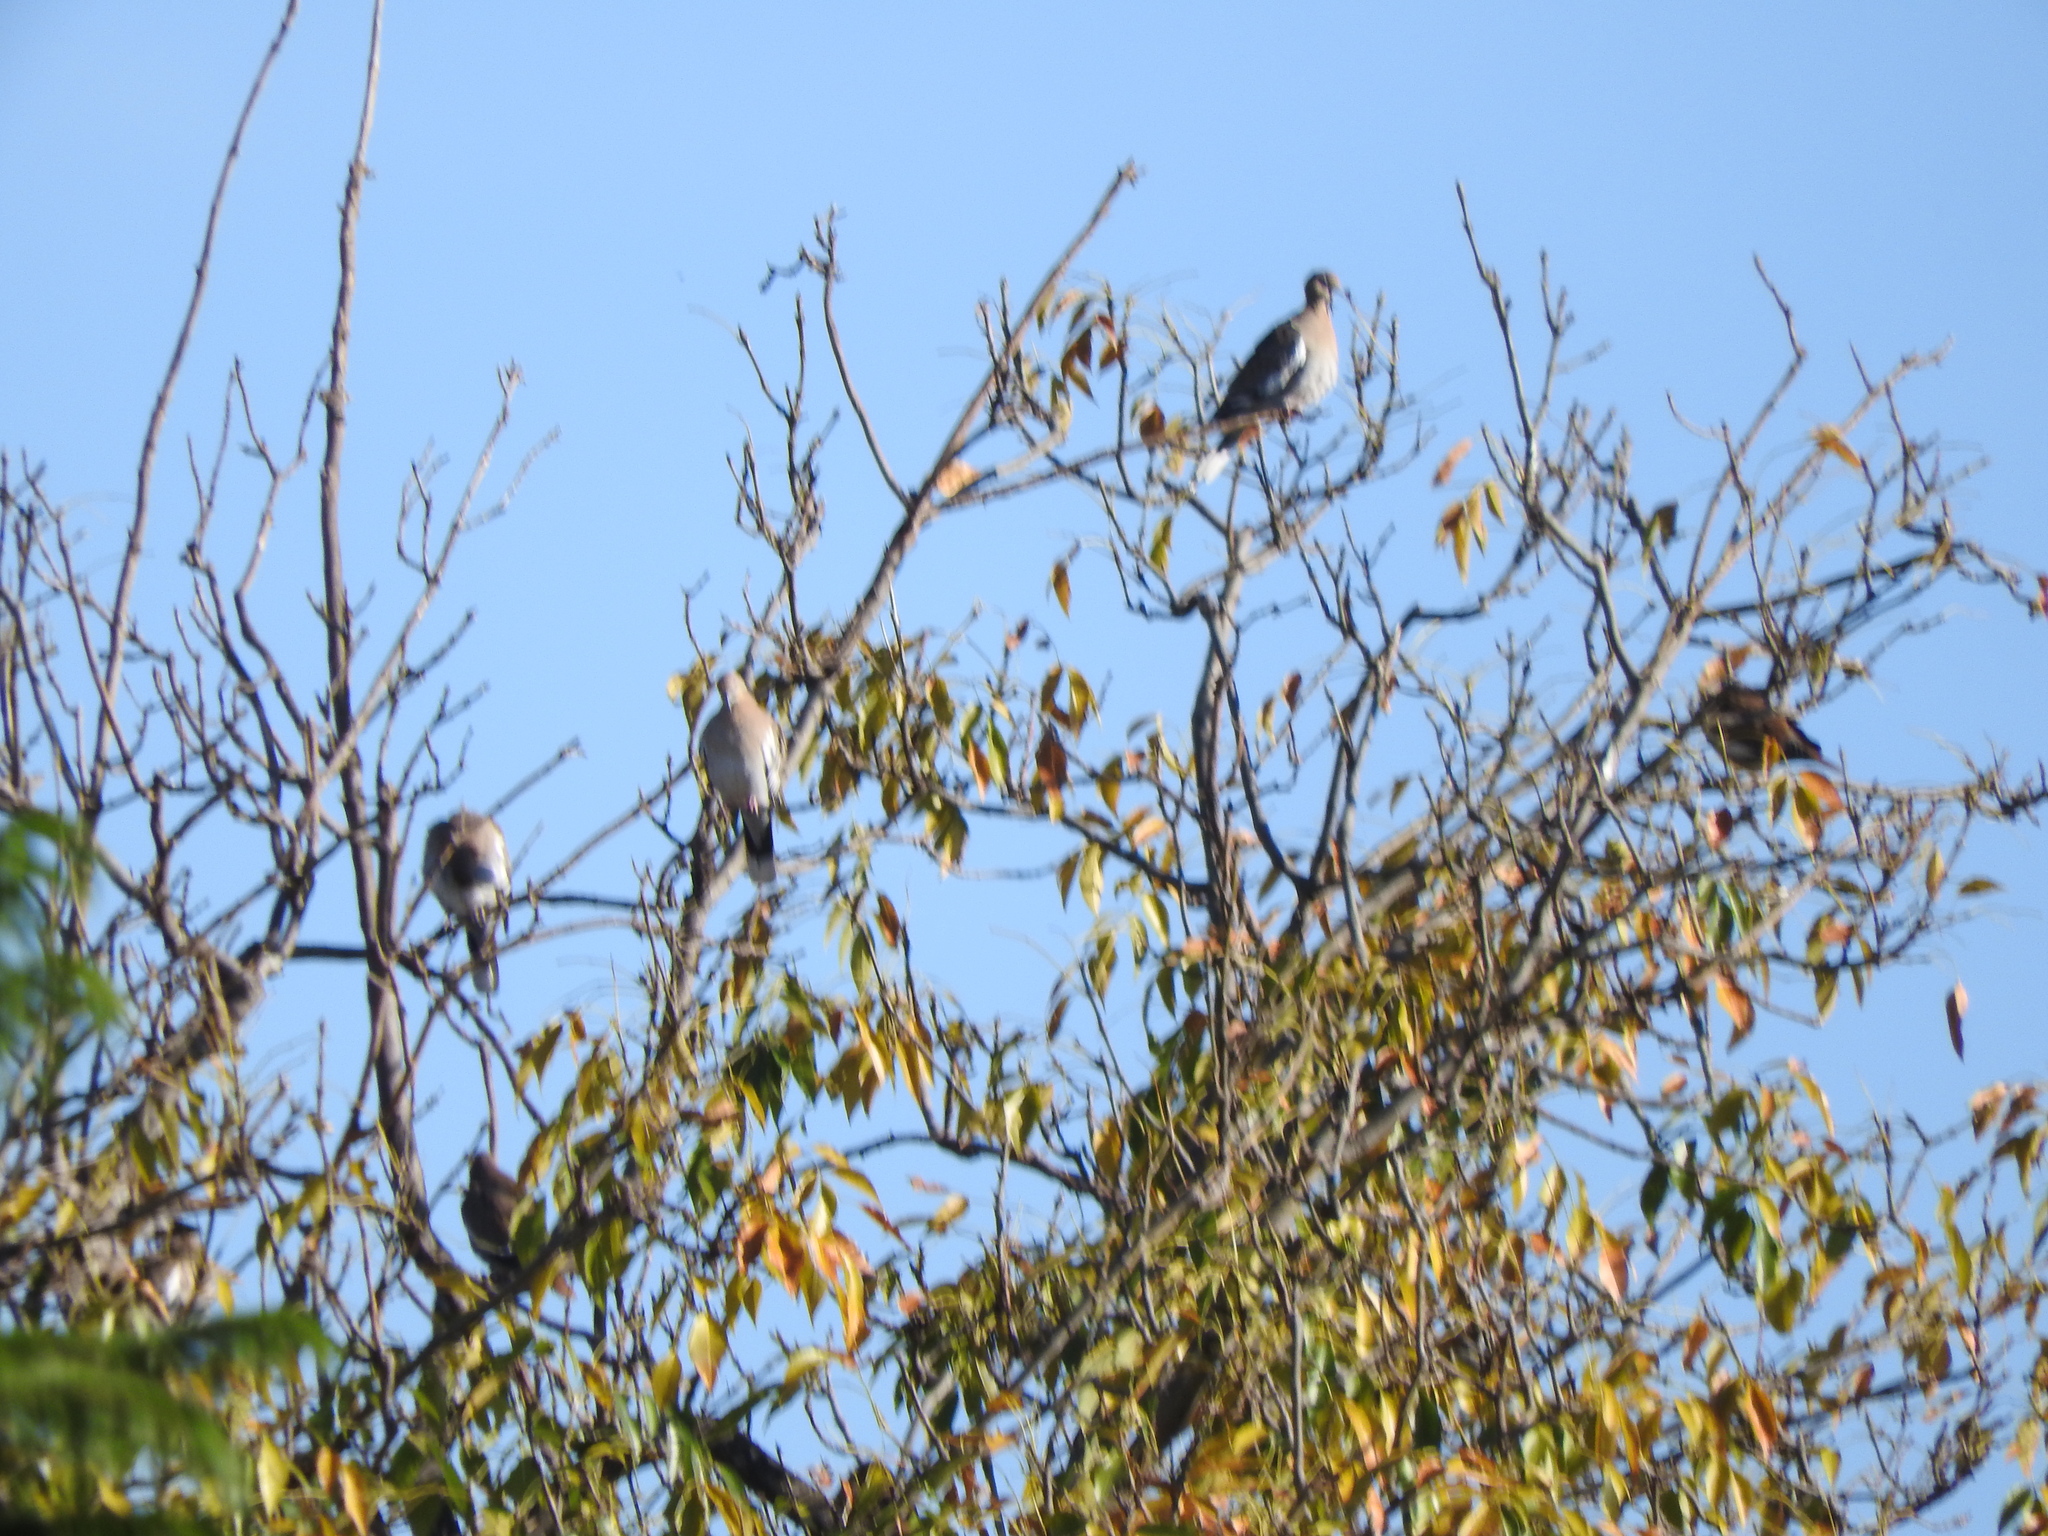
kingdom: Animalia
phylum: Chordata
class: Aves
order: Columbiformes
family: Columbidae
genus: Zenaida
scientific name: Zenaida asiatica
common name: White-winged dove
